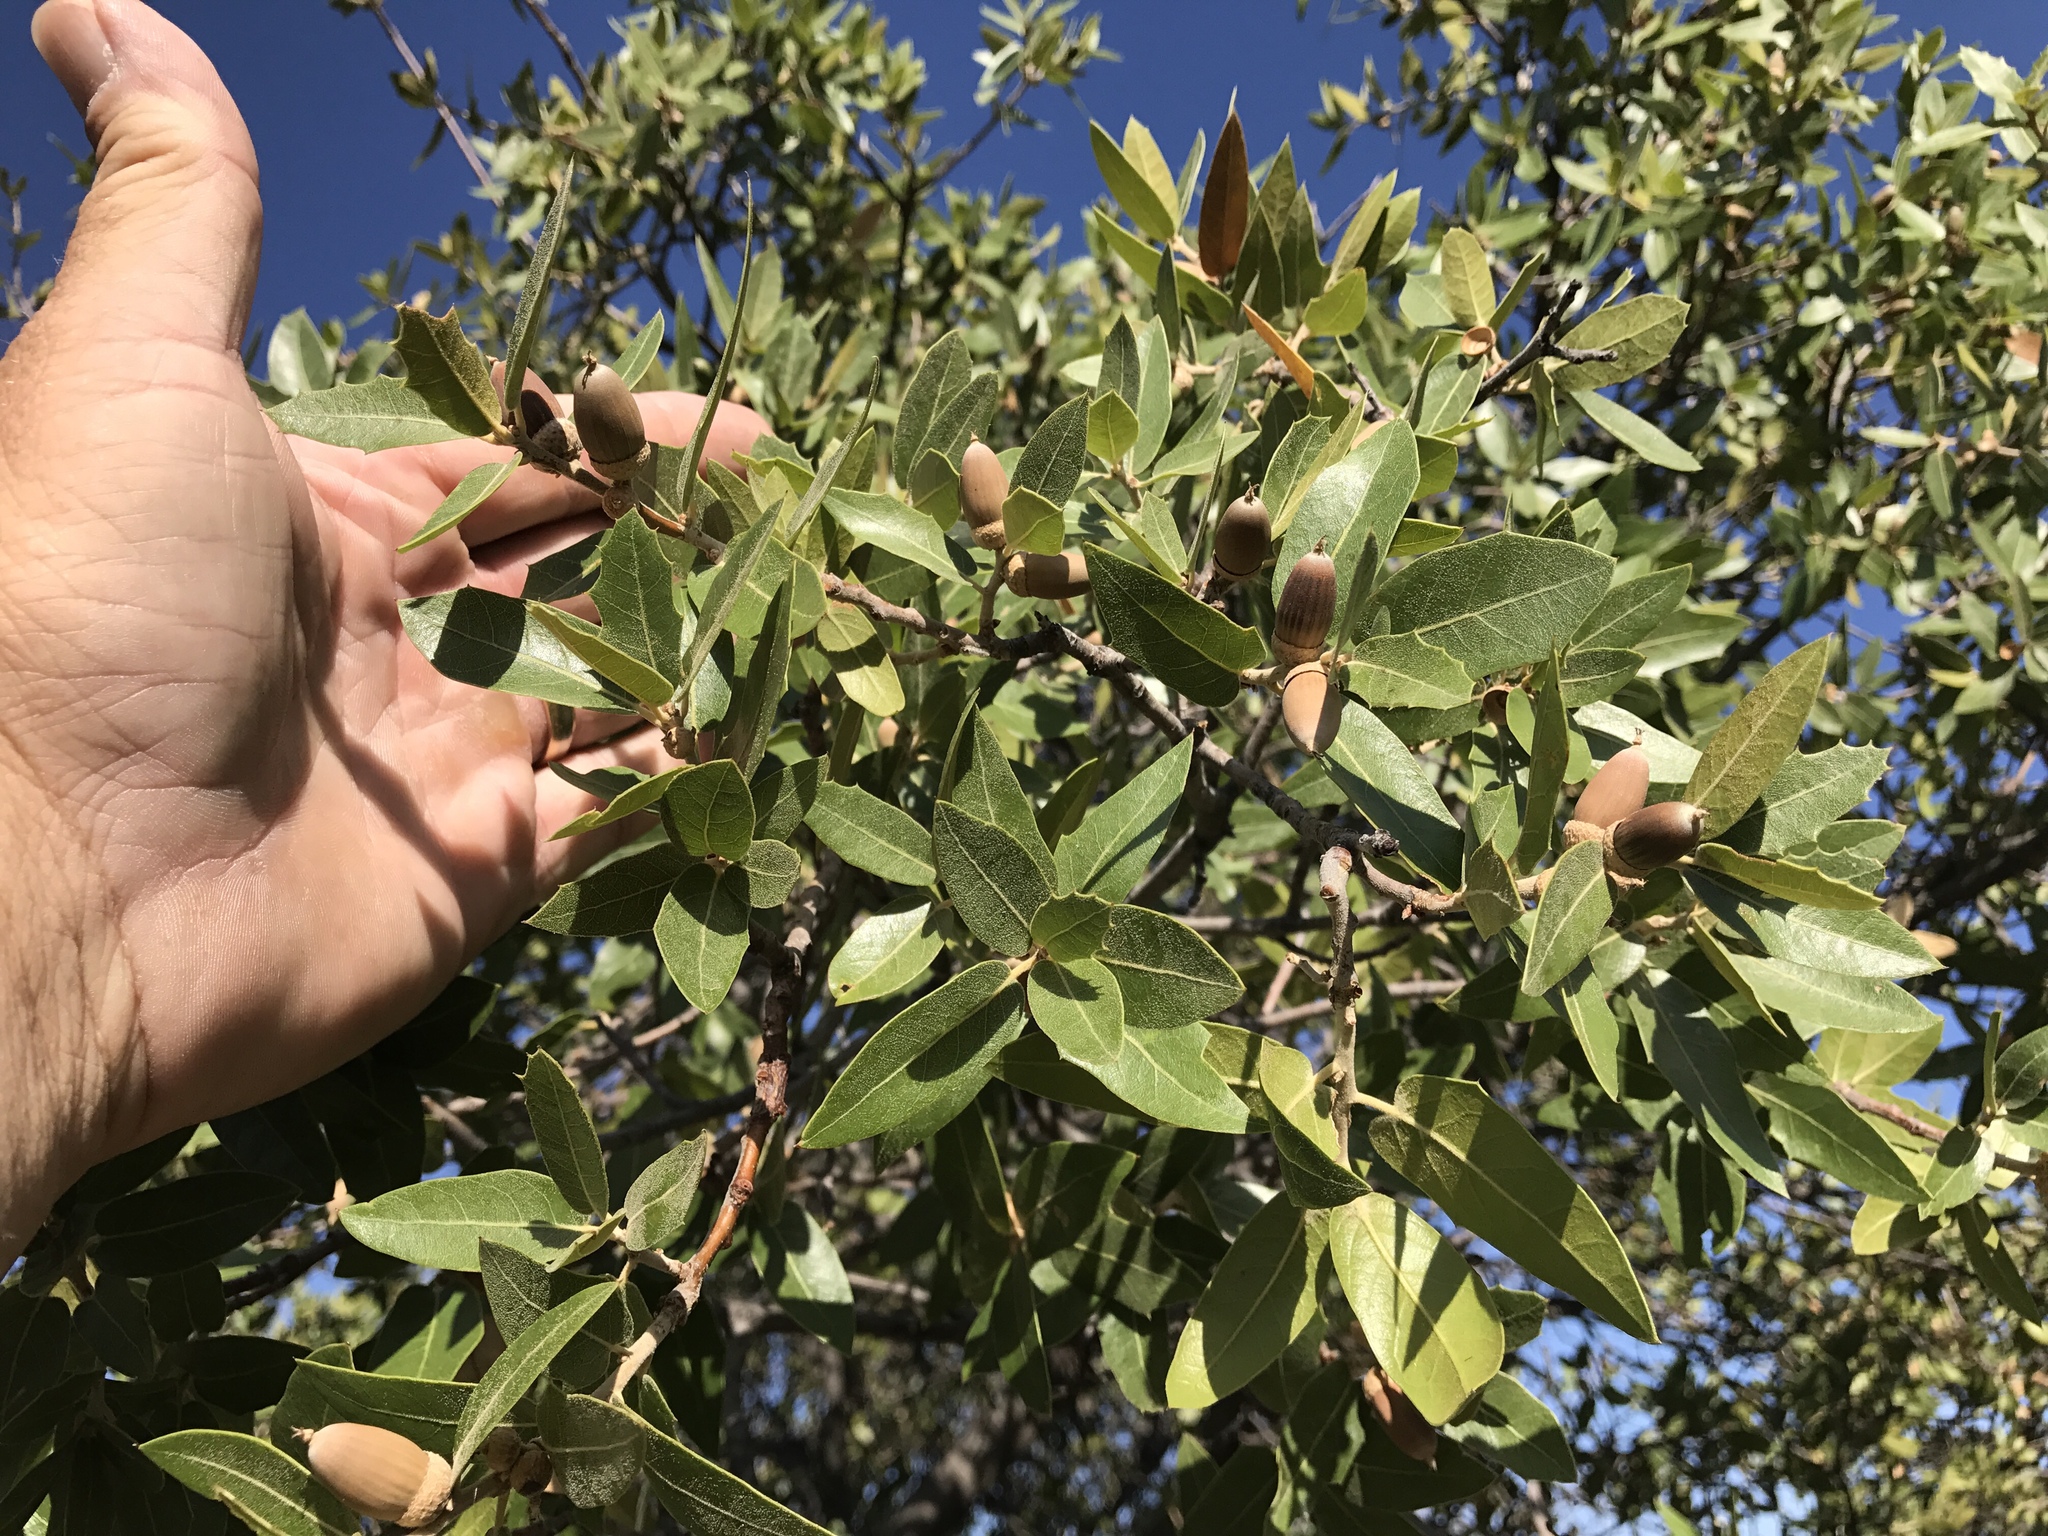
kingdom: Plantae
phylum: Tracheophyta
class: Magnoliopsida
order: Fagales
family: Fagaceae
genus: Quercus
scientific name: Quercus emoryi
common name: Emory oak
